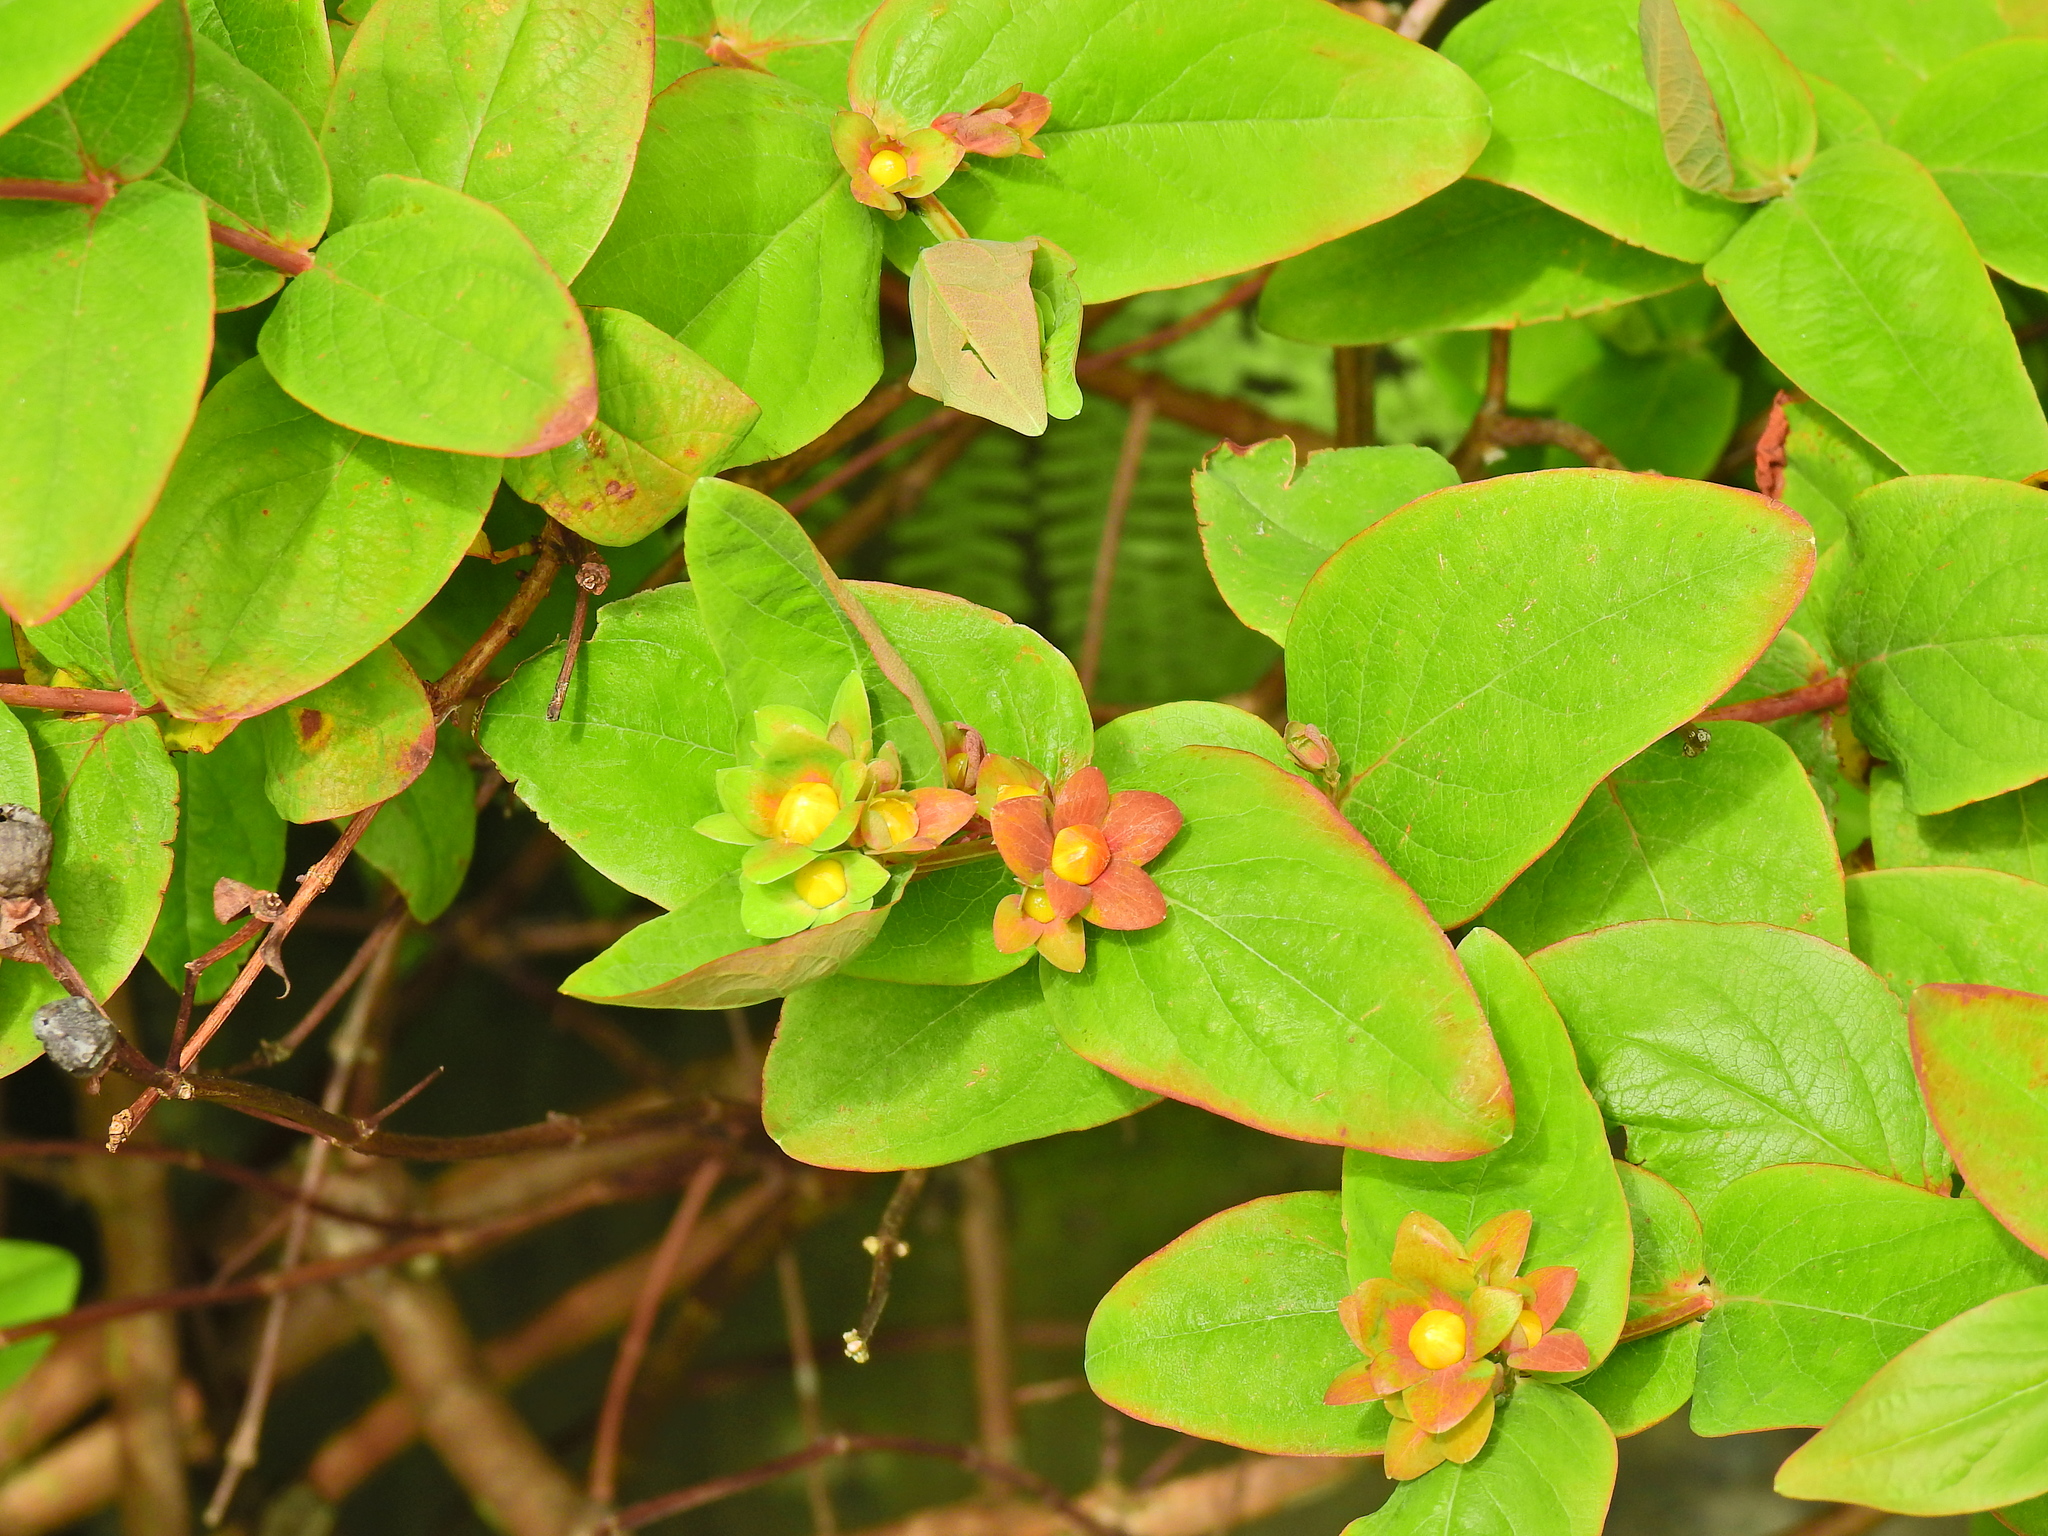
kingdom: Plantae
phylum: Tracheophyta
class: Magnoliopsida
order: Malpighiales
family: Hypericaceae
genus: Hypericum
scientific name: Hypericum androsaemum
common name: Sweet-amber
